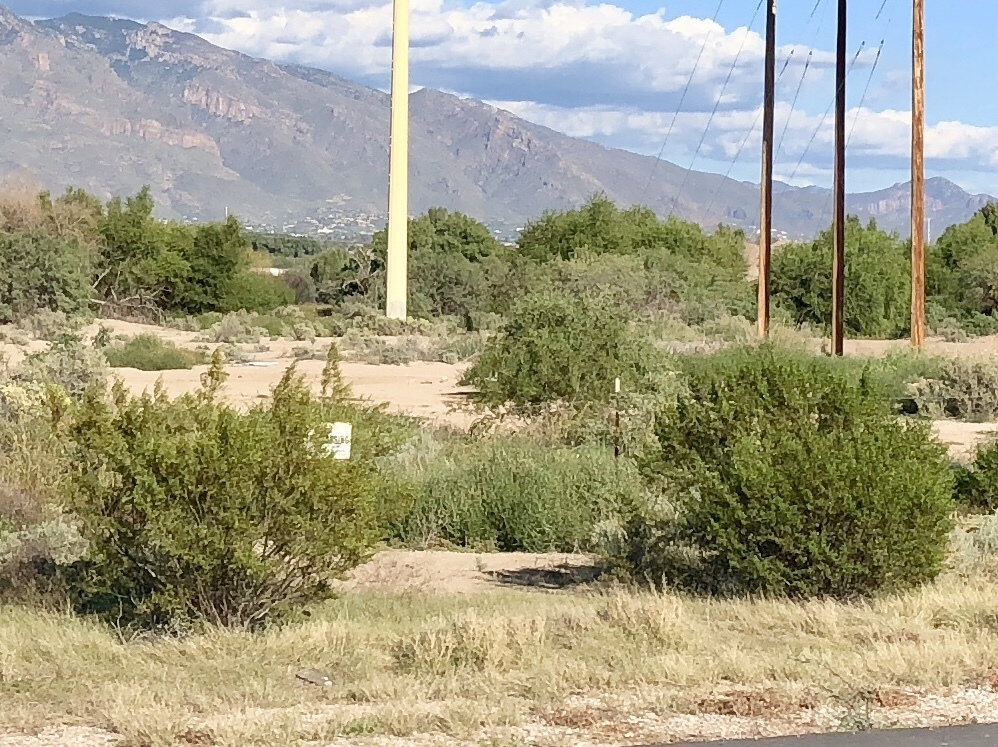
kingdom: Plantae
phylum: Tracheophyta
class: Magnoliopsida
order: Zygophyllales
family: Zygophyllaceae
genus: Larrea
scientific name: Larrea tridentata
